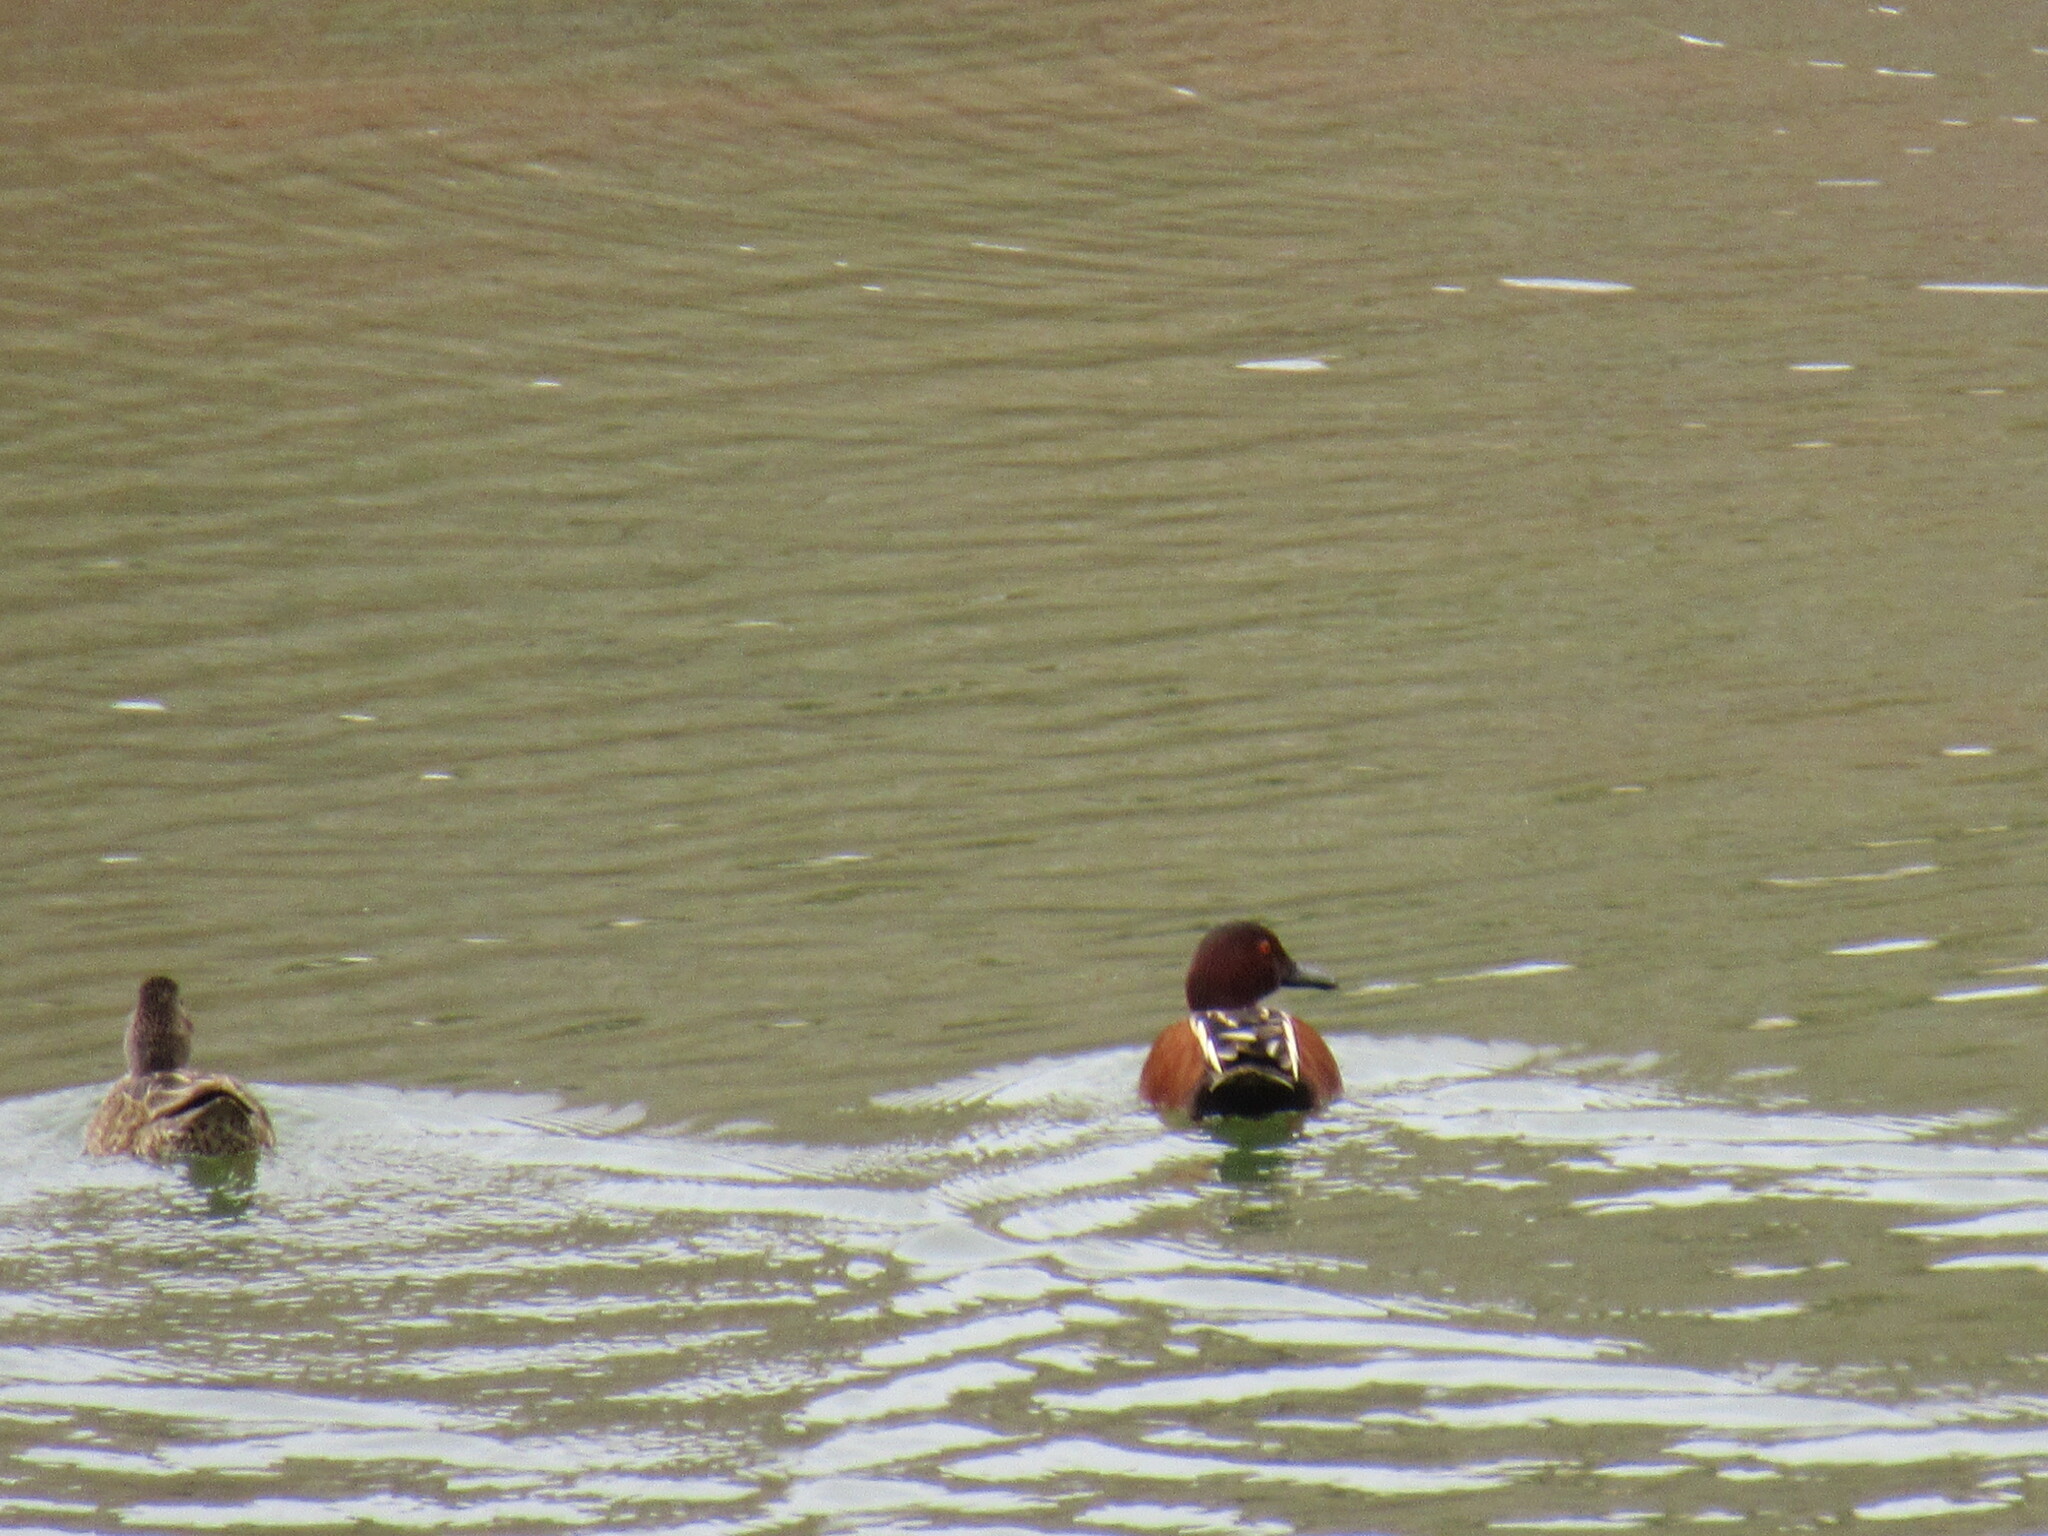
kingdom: Animalia
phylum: Chordata
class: Aves
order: Anseriformes
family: Anatidae
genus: Spatula
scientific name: Spatula cyanoptera
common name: Cinnamon teal
